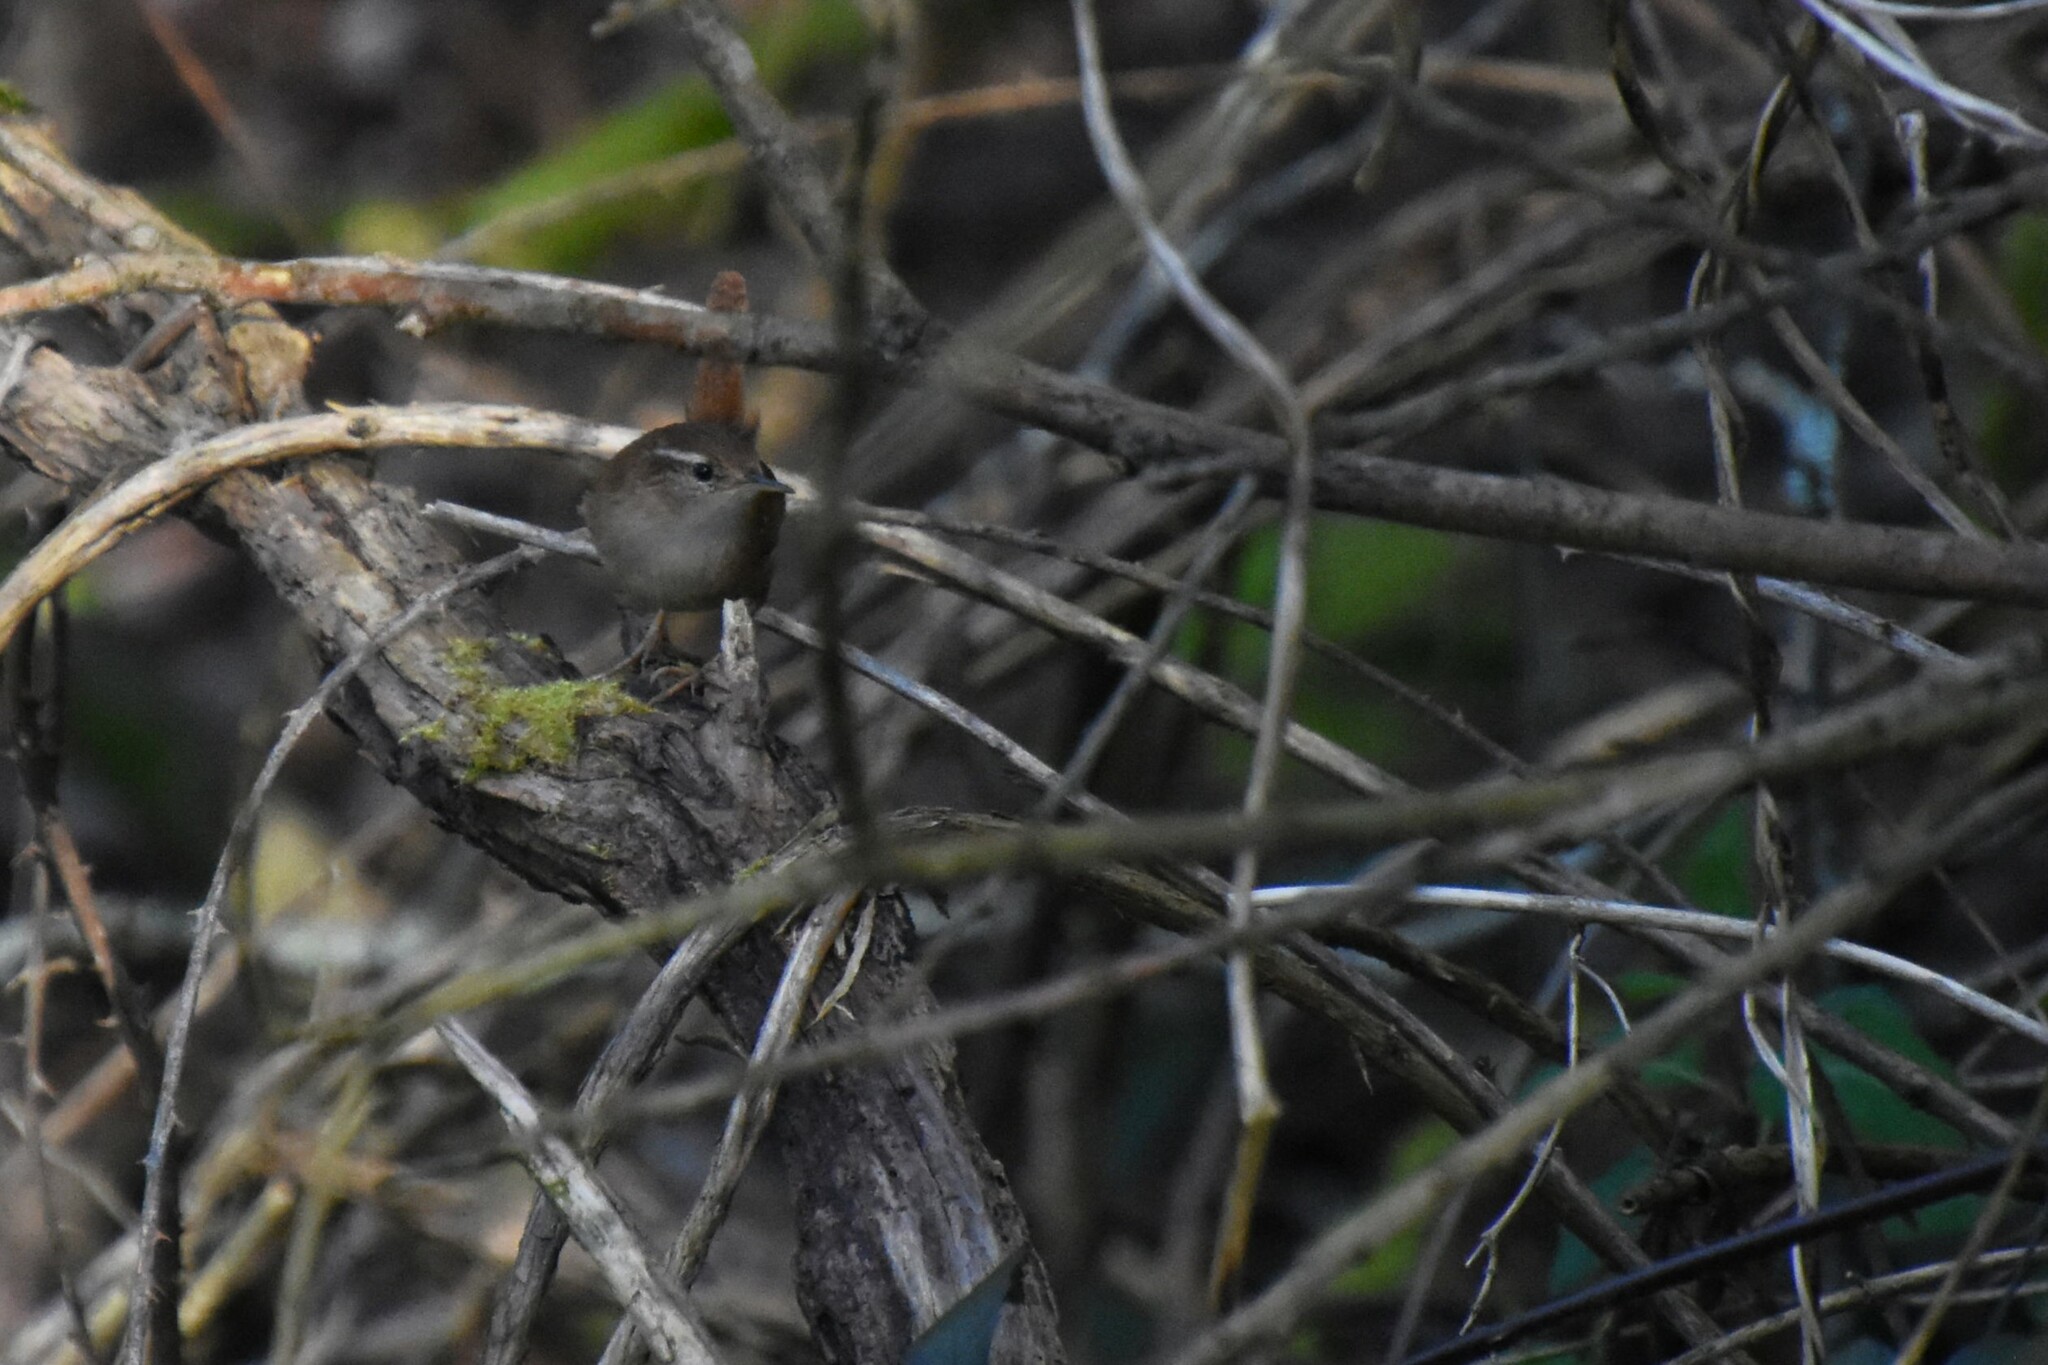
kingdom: Animalia
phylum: Chordata
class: Aves
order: Passeriformes
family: Troglodytidae
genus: Troglodytes
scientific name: Troglodytes troglodytes
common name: Eurasian wren
